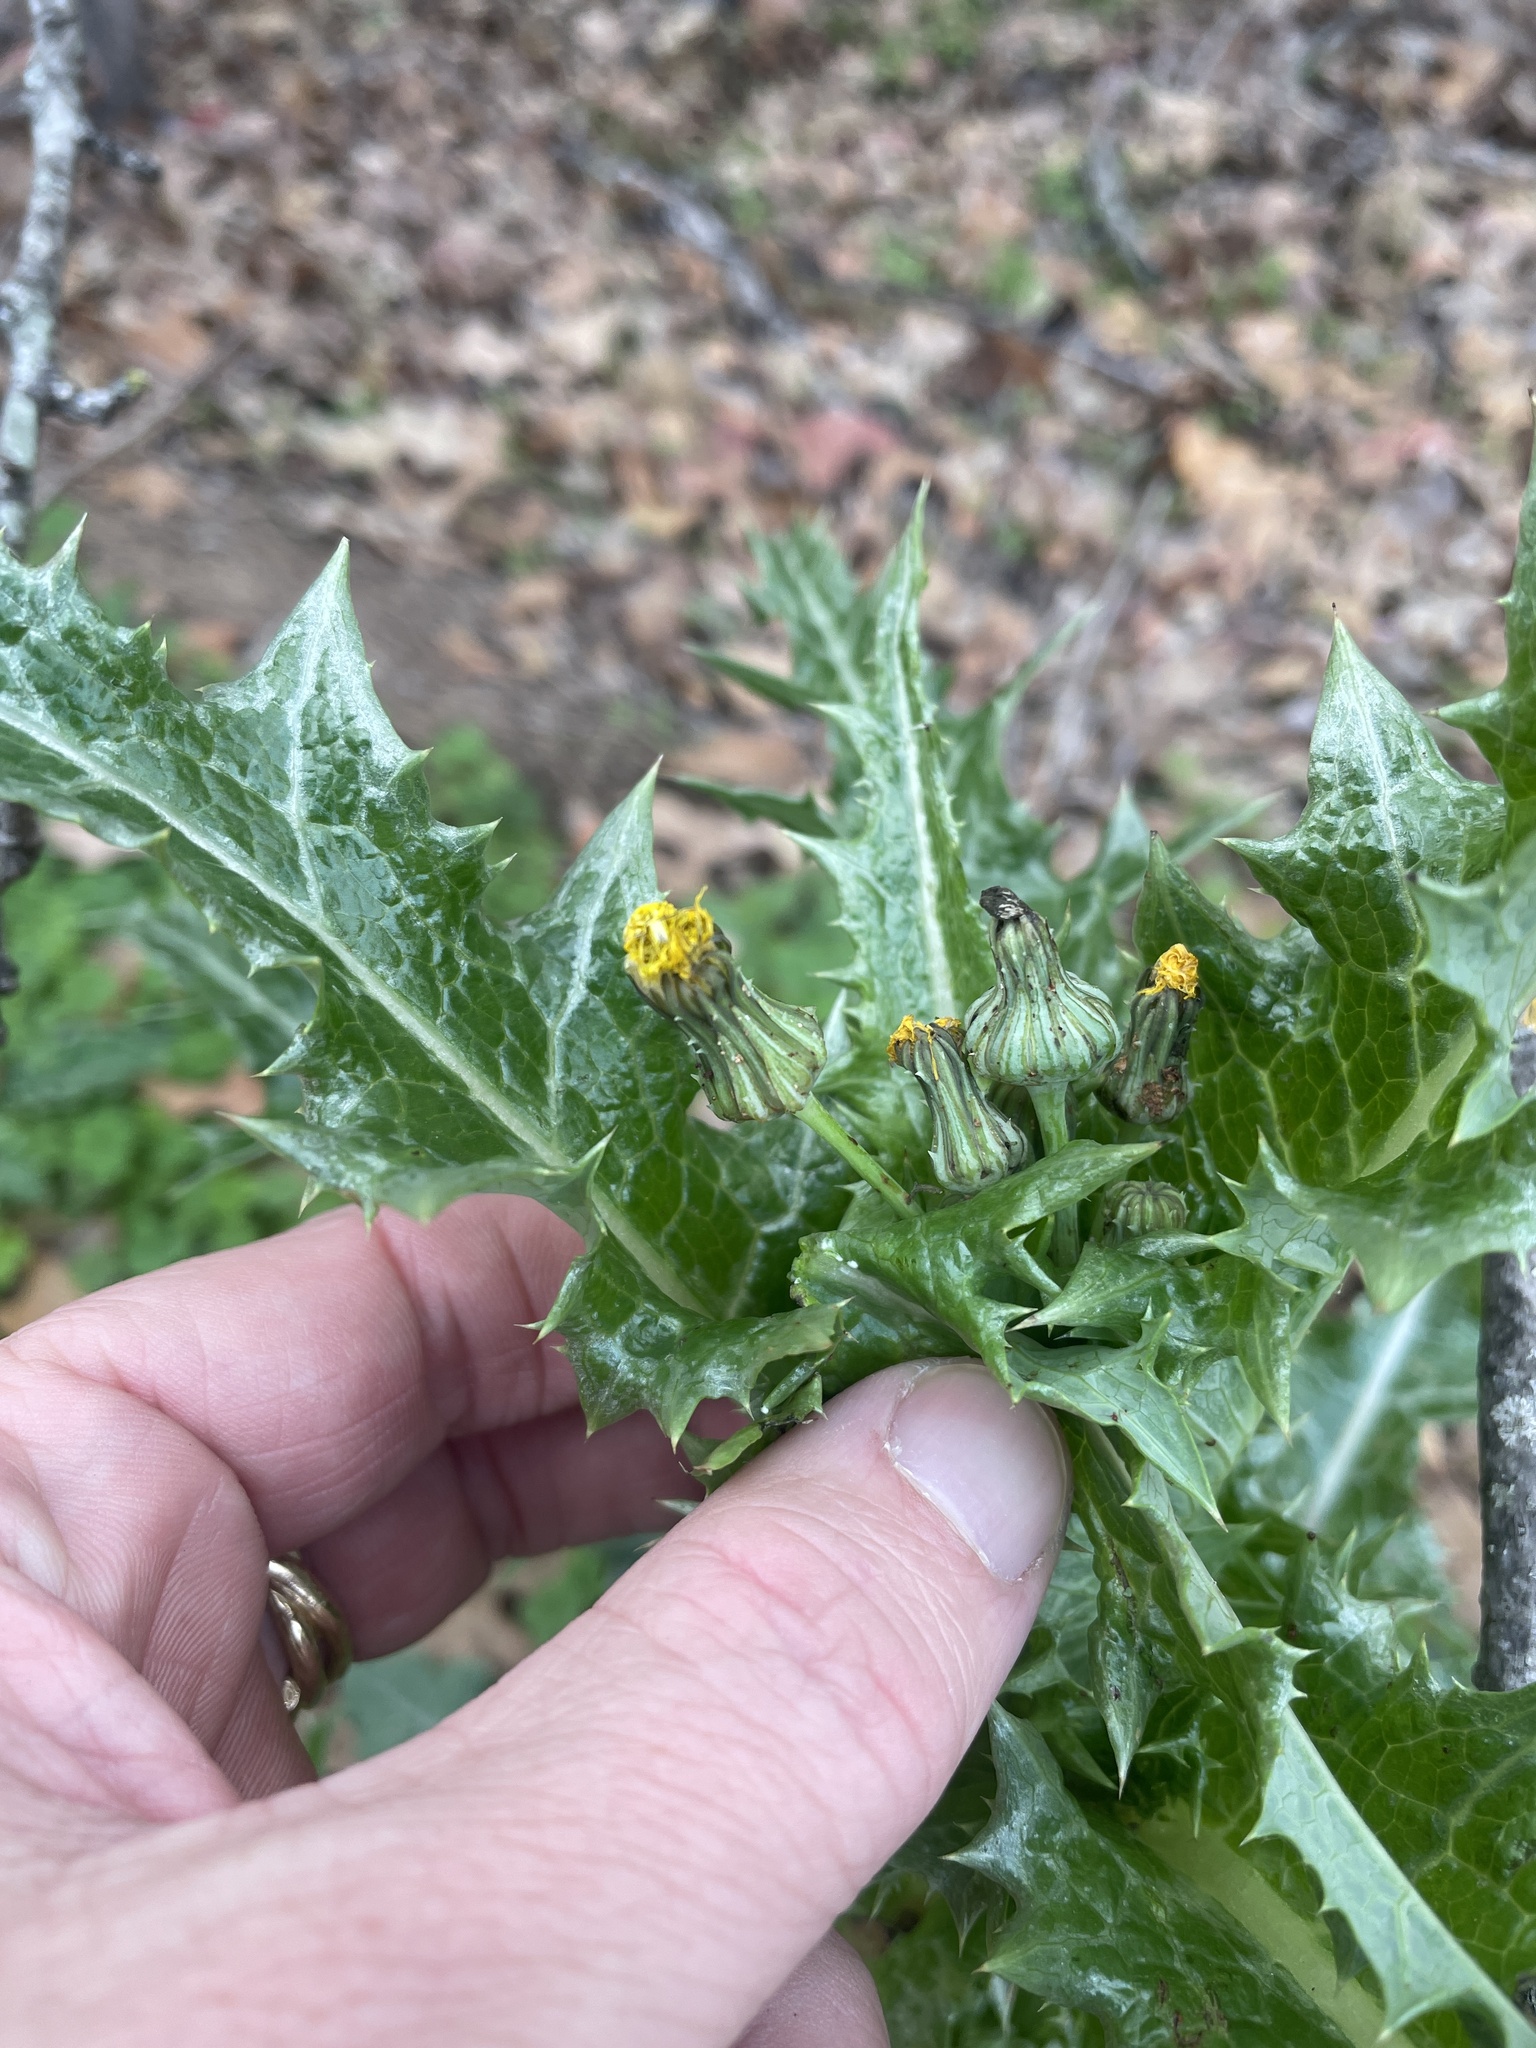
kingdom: Plantae
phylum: Tracheophyta
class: Magnoliopsida
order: Asterales
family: Asteraceae
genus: Sonchus
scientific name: Sonchus asper
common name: Prickly sow-thistle
